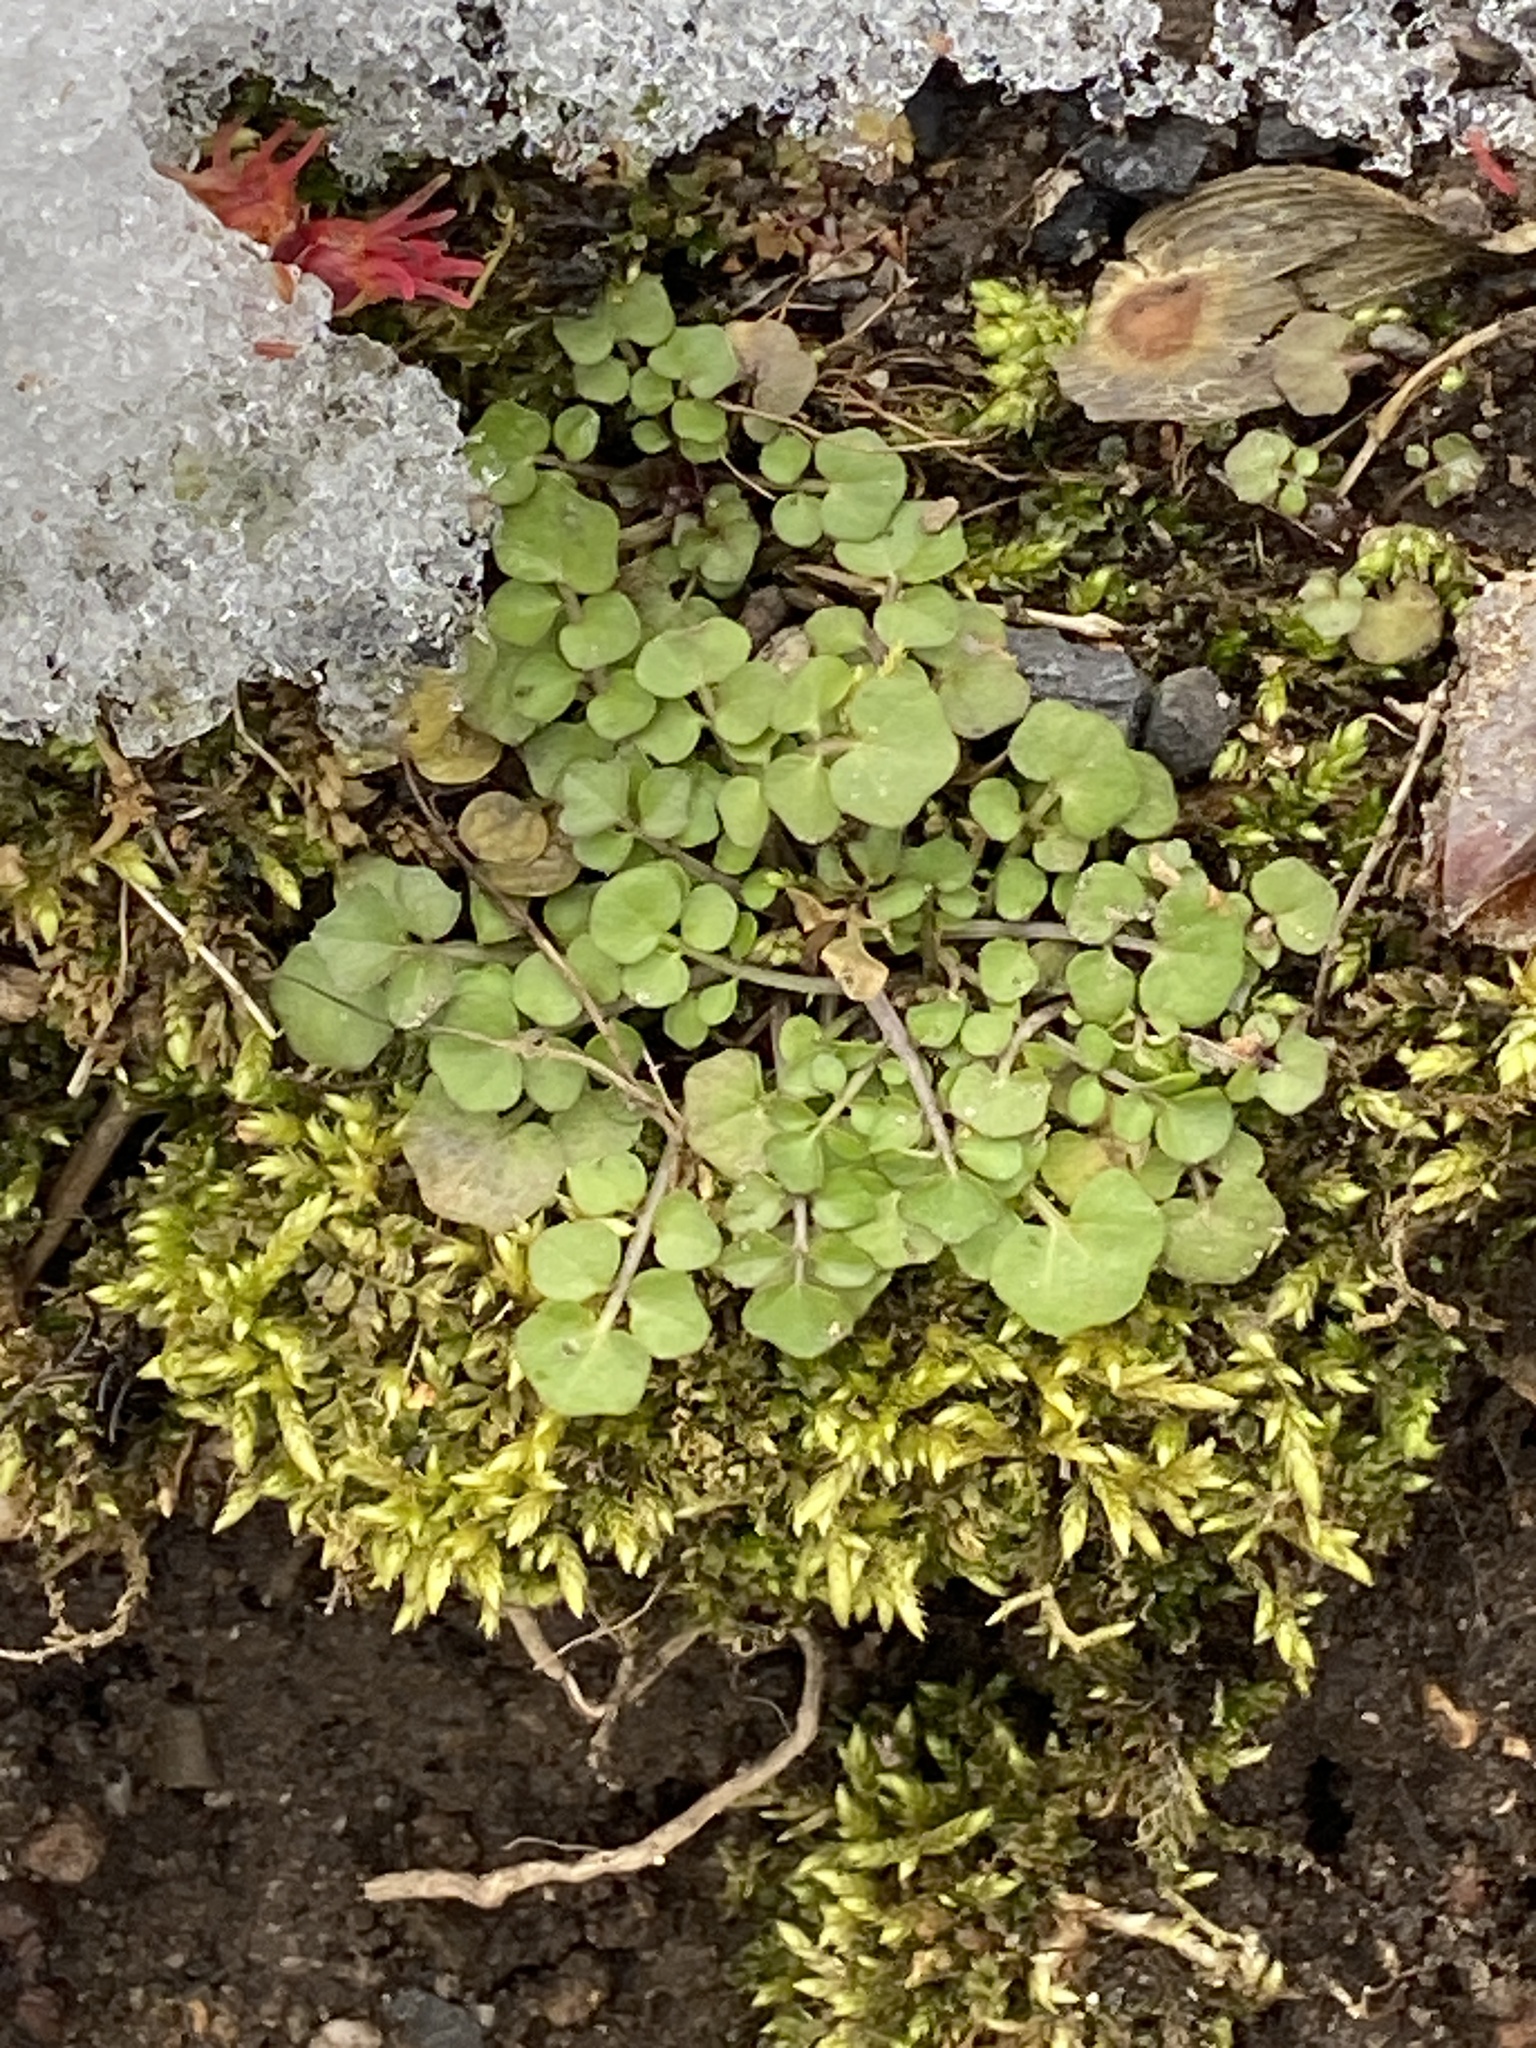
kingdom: Plantae
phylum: Tracheophyta
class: Magnoliopsida
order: Brassicales
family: Brassicaceae
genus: Cardamine
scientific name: Cardamine hirsuta
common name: Hairy bittercress
